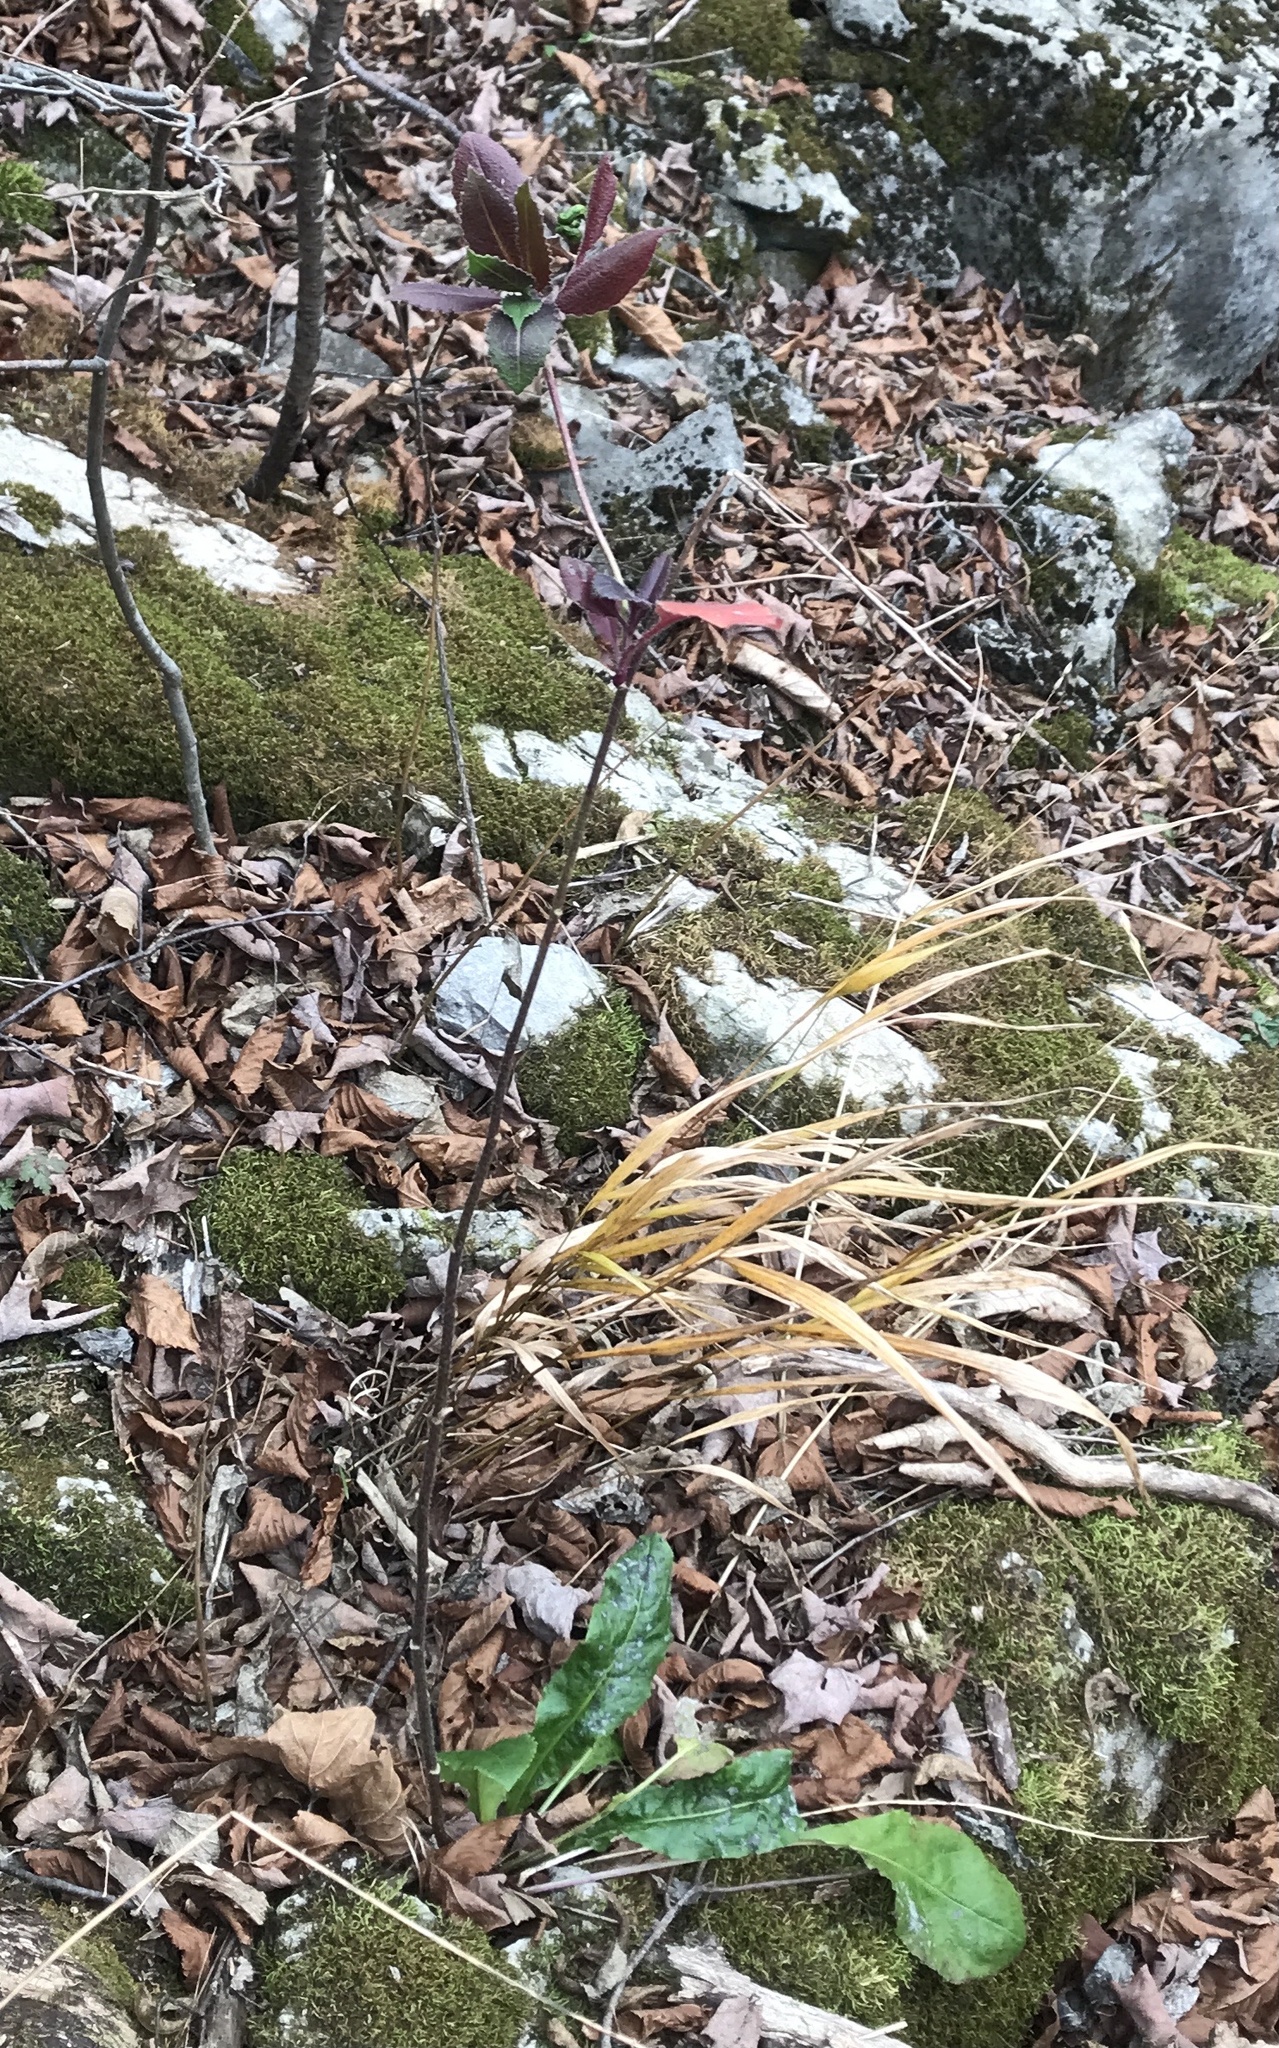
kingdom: Plantae
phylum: Tracheophyta
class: Magnoliopsida
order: Brassicales
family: Brassicaceae
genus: Hesperis
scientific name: Hesperis matronalis
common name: Dame's-violet
